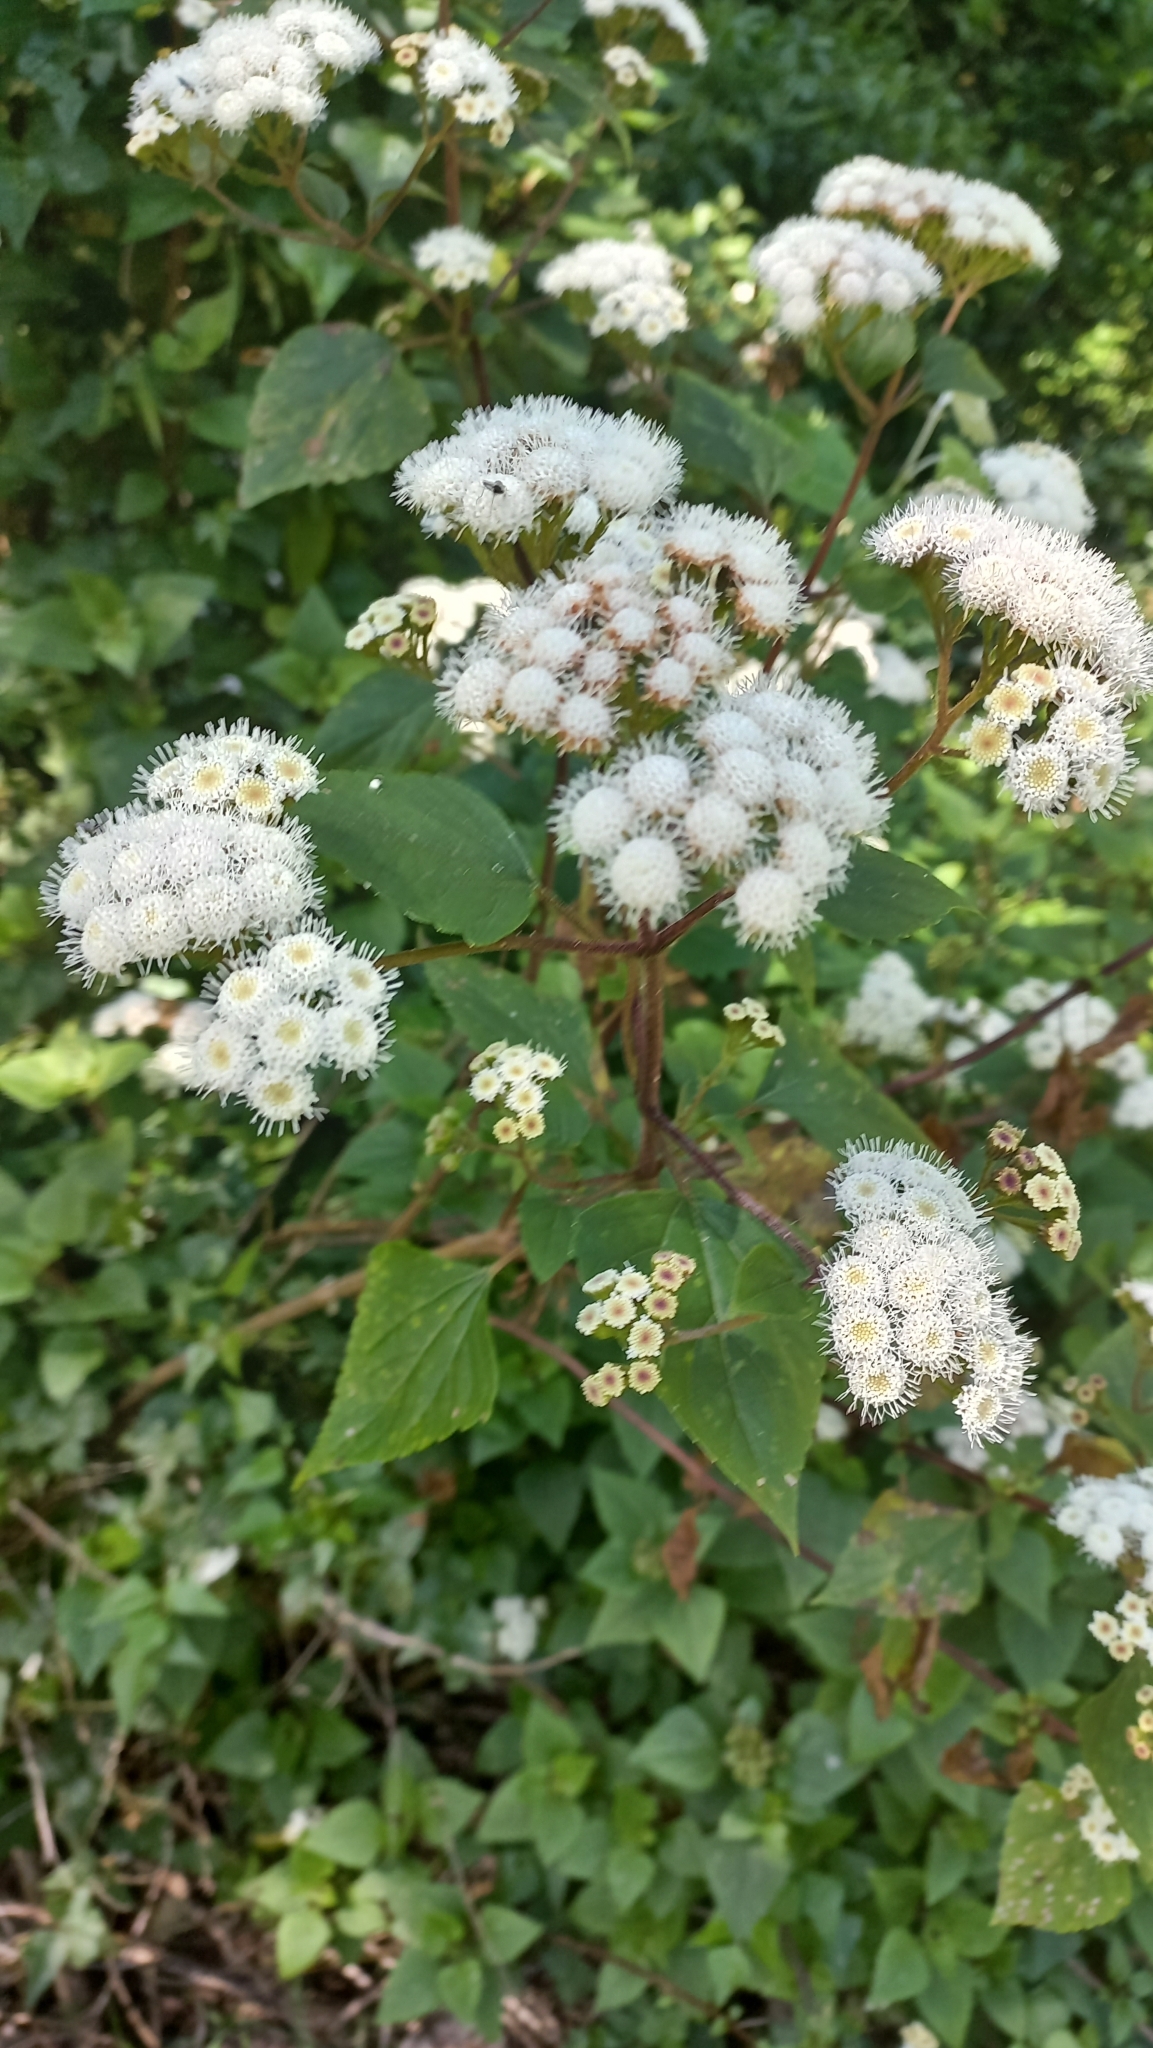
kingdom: Plantae
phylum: Tracheophyta
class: Magnoliopsida
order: Asterales
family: Asteraceae
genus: Ageratina
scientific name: Ageratina adenophora
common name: Sticky snakeroot
